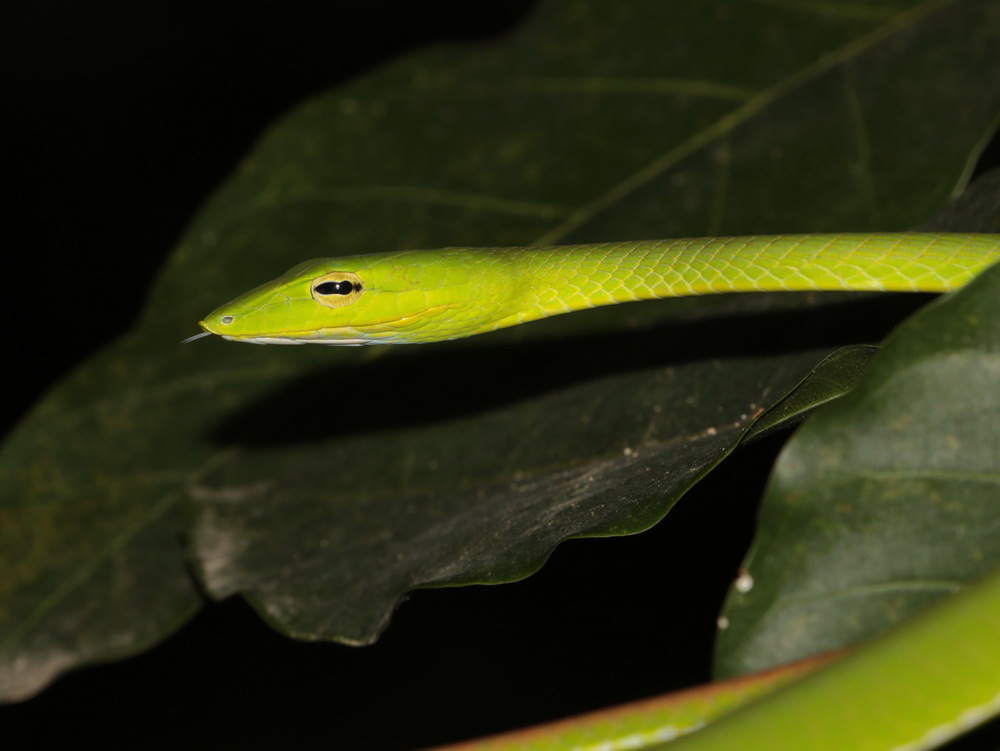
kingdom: Animalia
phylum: Chordata
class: Squamata
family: Colubridae
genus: Ahaetulla
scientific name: Ahaetulla prasina
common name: Oriental whip snake
